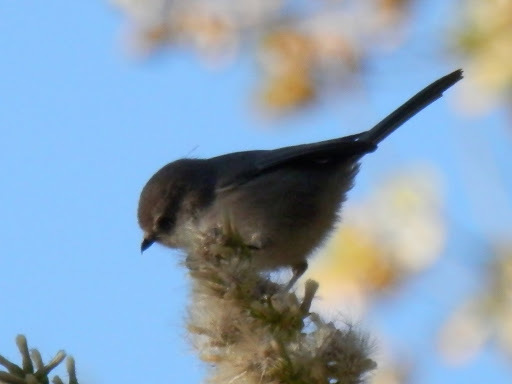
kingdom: Animalia
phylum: Chordata
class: Aves
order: Passeriformes
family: Aegithalidae
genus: Psaltriparus
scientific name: Psaltriparus minimus
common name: American bushtit
